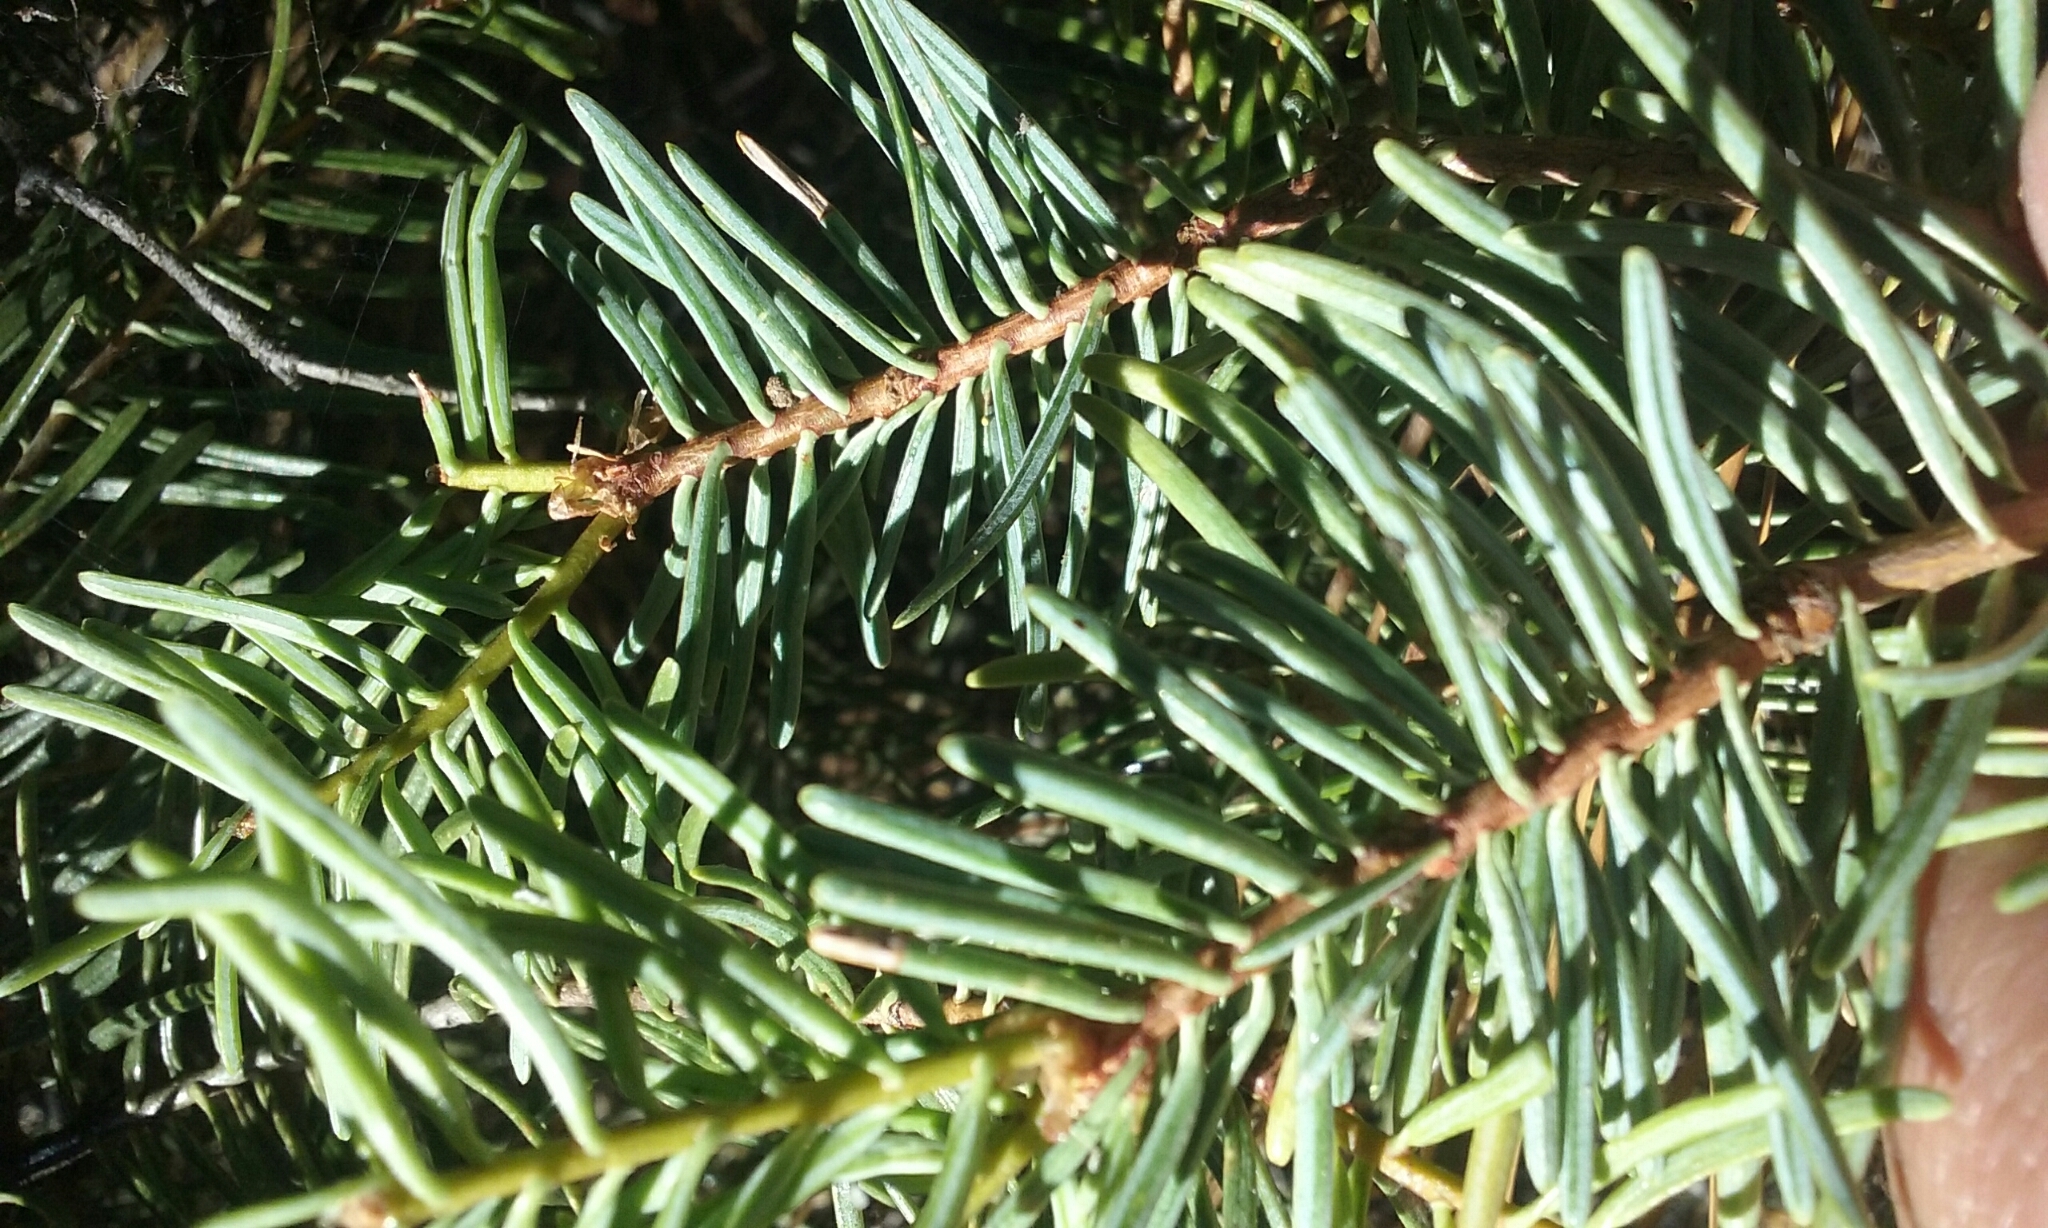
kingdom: Plantae
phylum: Tracheophyta
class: Pinopsida
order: Pinales
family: Pinaceae
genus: Abies
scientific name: Abies concolor
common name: Colorado fir
